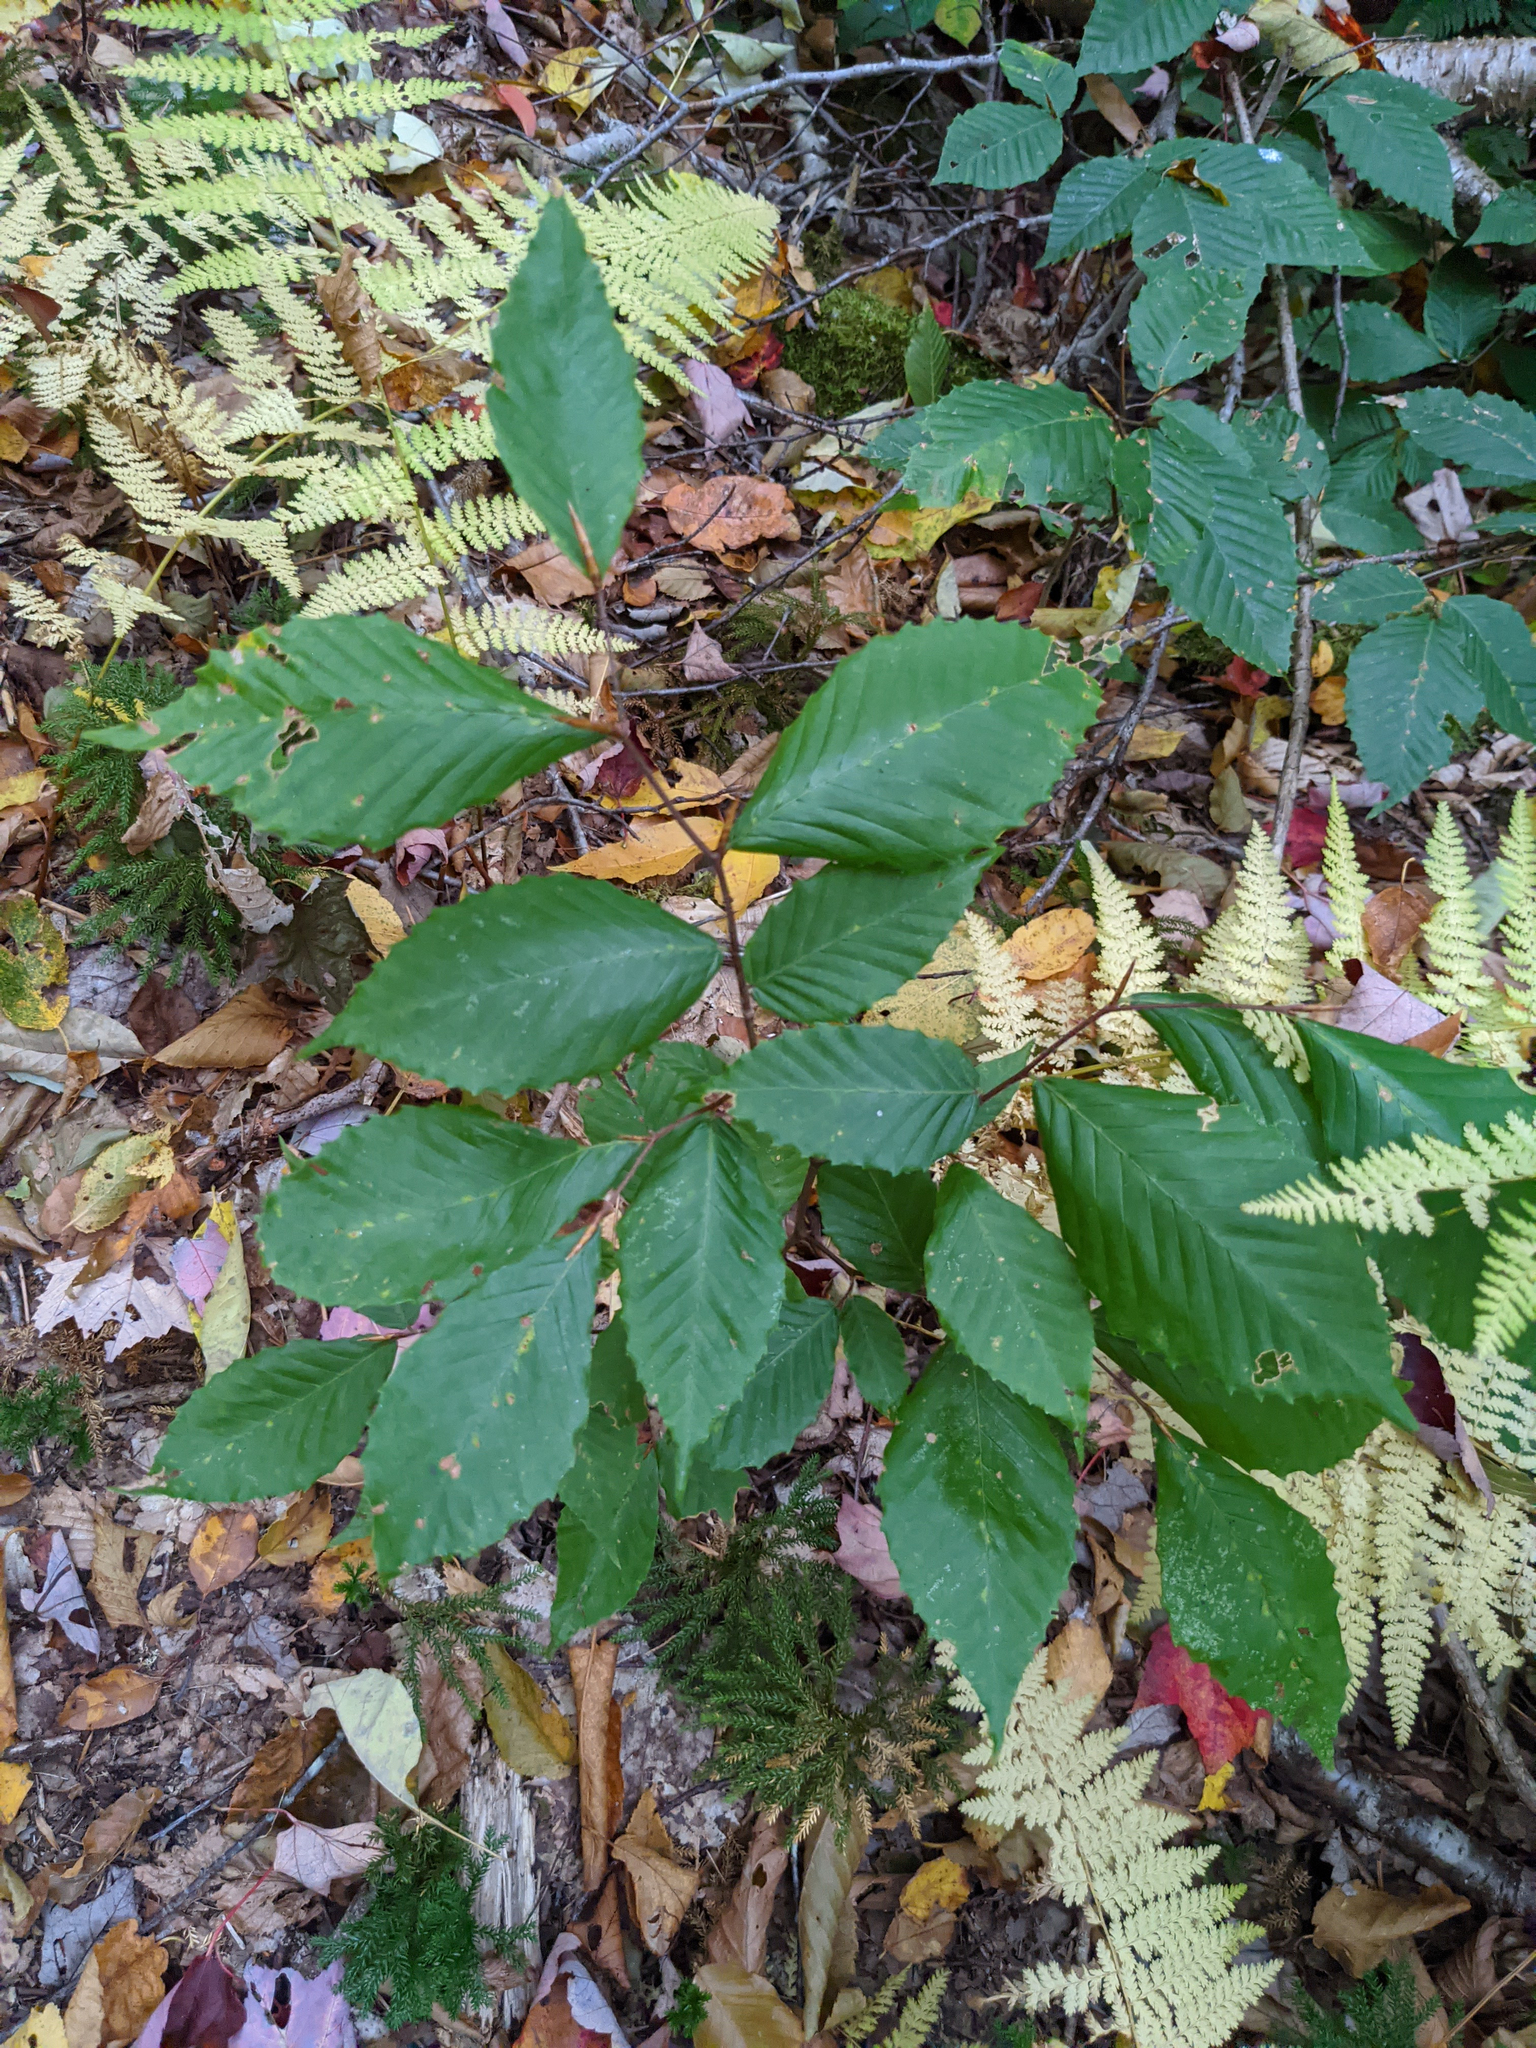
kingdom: Plantae
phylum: Tracheophyta
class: Magnoliopsida
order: Fagales
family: Fagaceae
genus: Fagus
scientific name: Fagus grandifolia
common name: American beech
